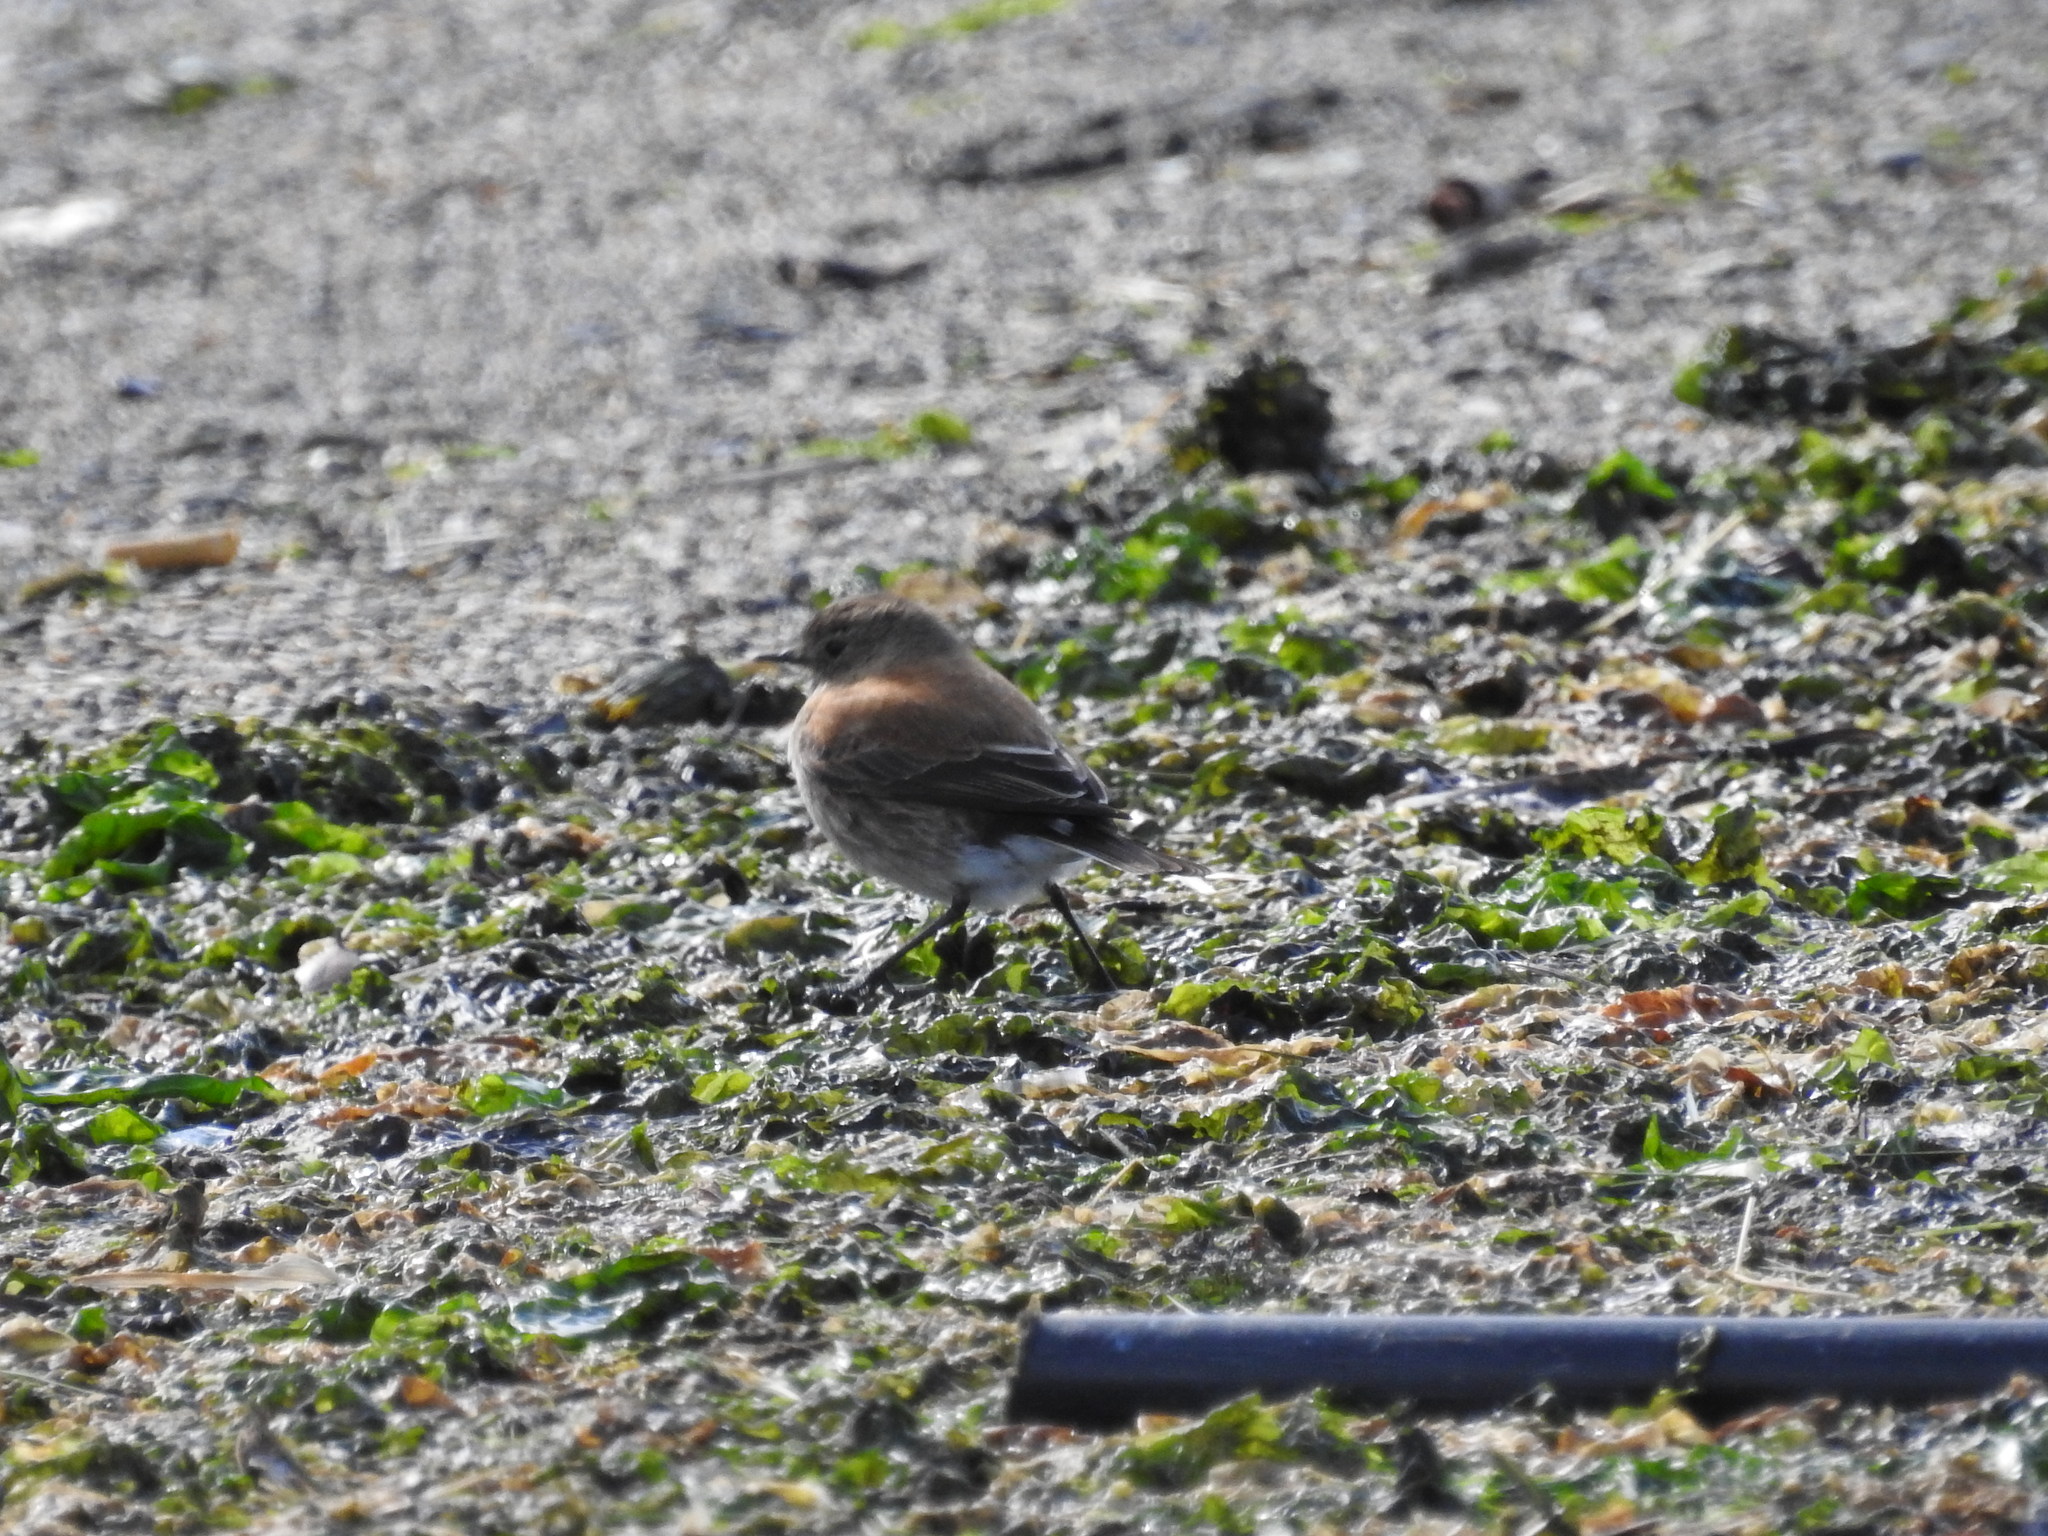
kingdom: Animalia
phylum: Chordata
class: Aves
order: Passeriformes
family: Tyrannidae
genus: Lessonia
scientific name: Lessonia rufa
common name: Austral negrito
